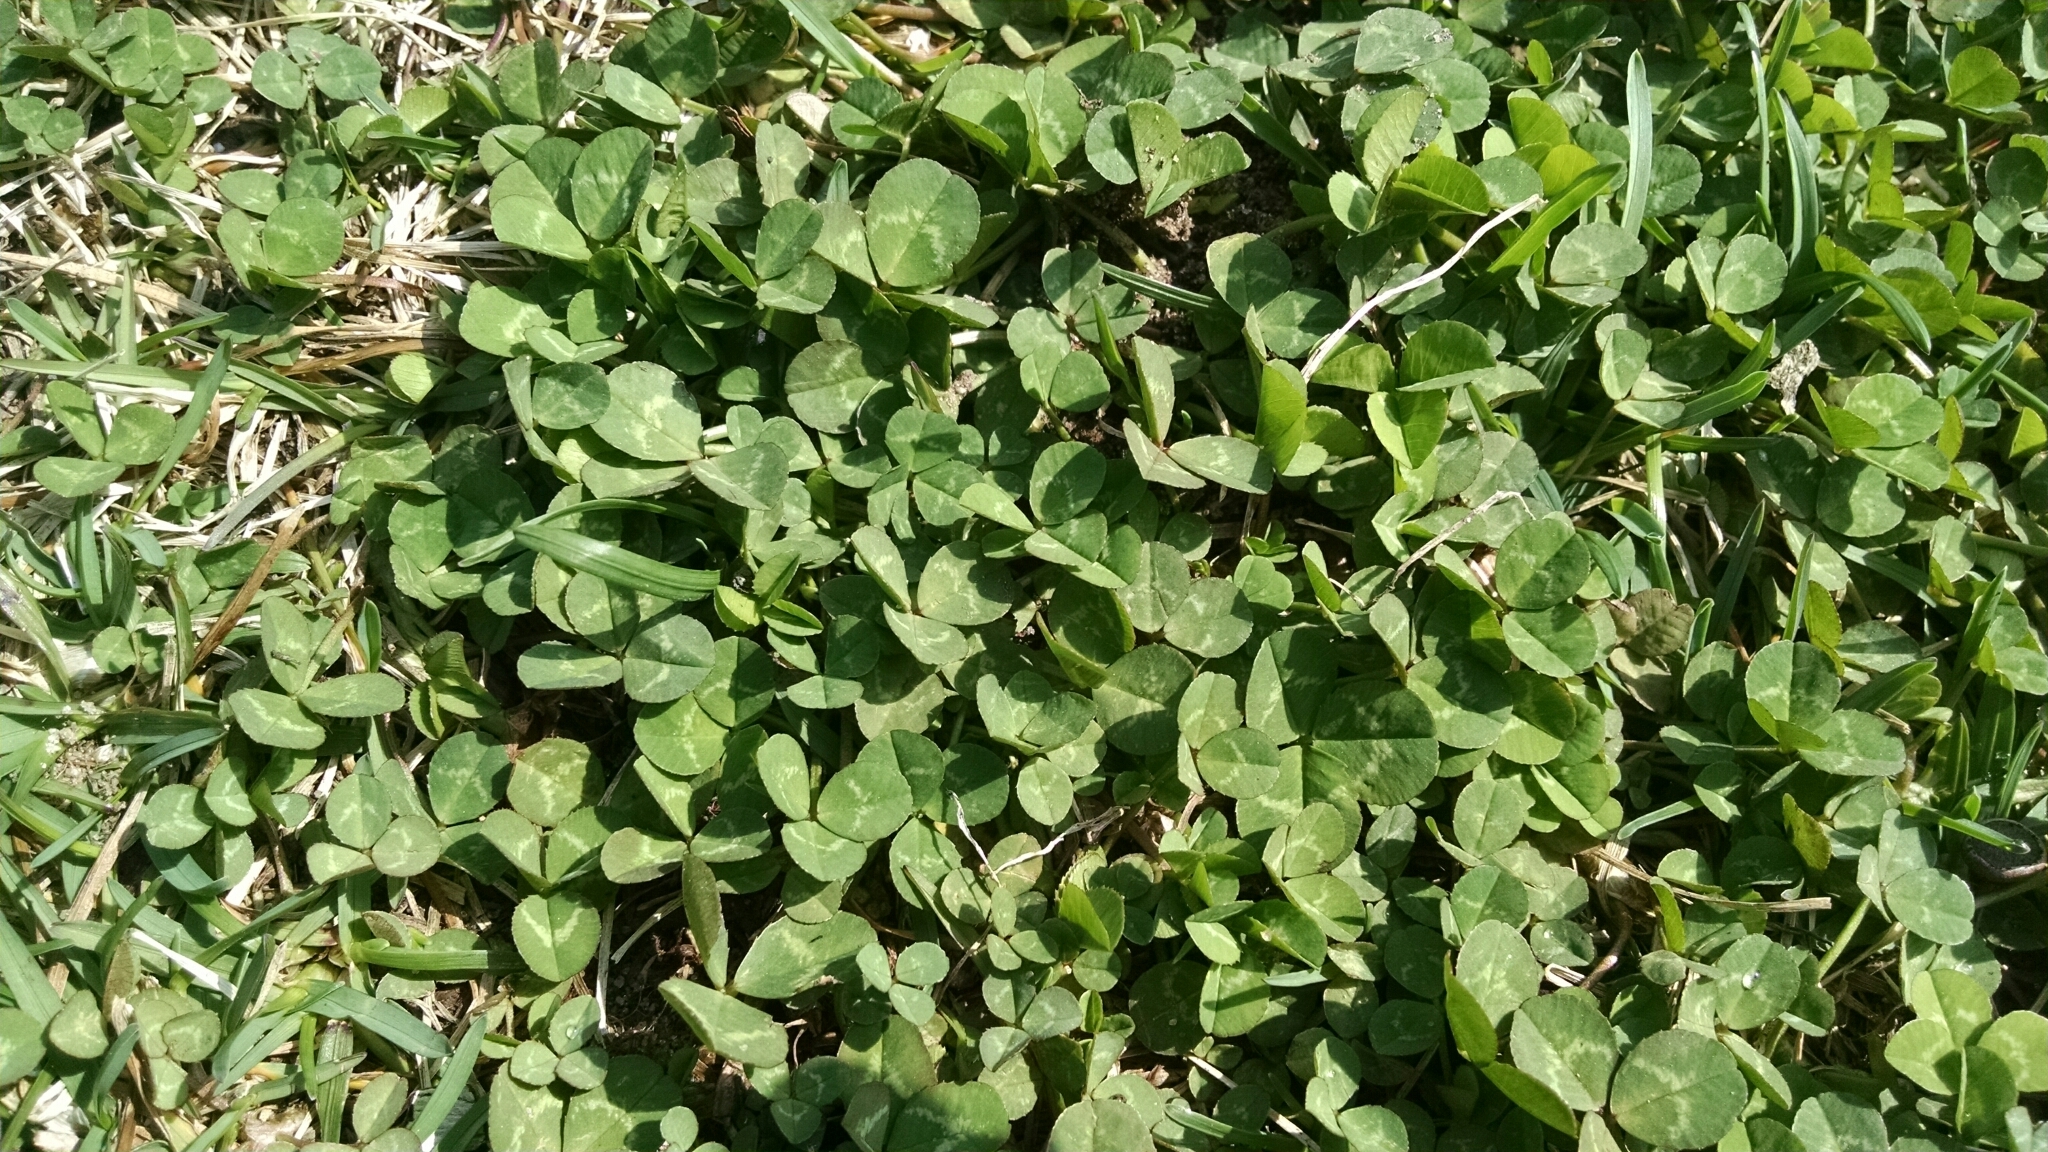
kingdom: Plantae
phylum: Tracheophyta
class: Magnoliopsida
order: Fabales
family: Fabaceae
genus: Trifolium
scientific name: Trifolium repens
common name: White clover
